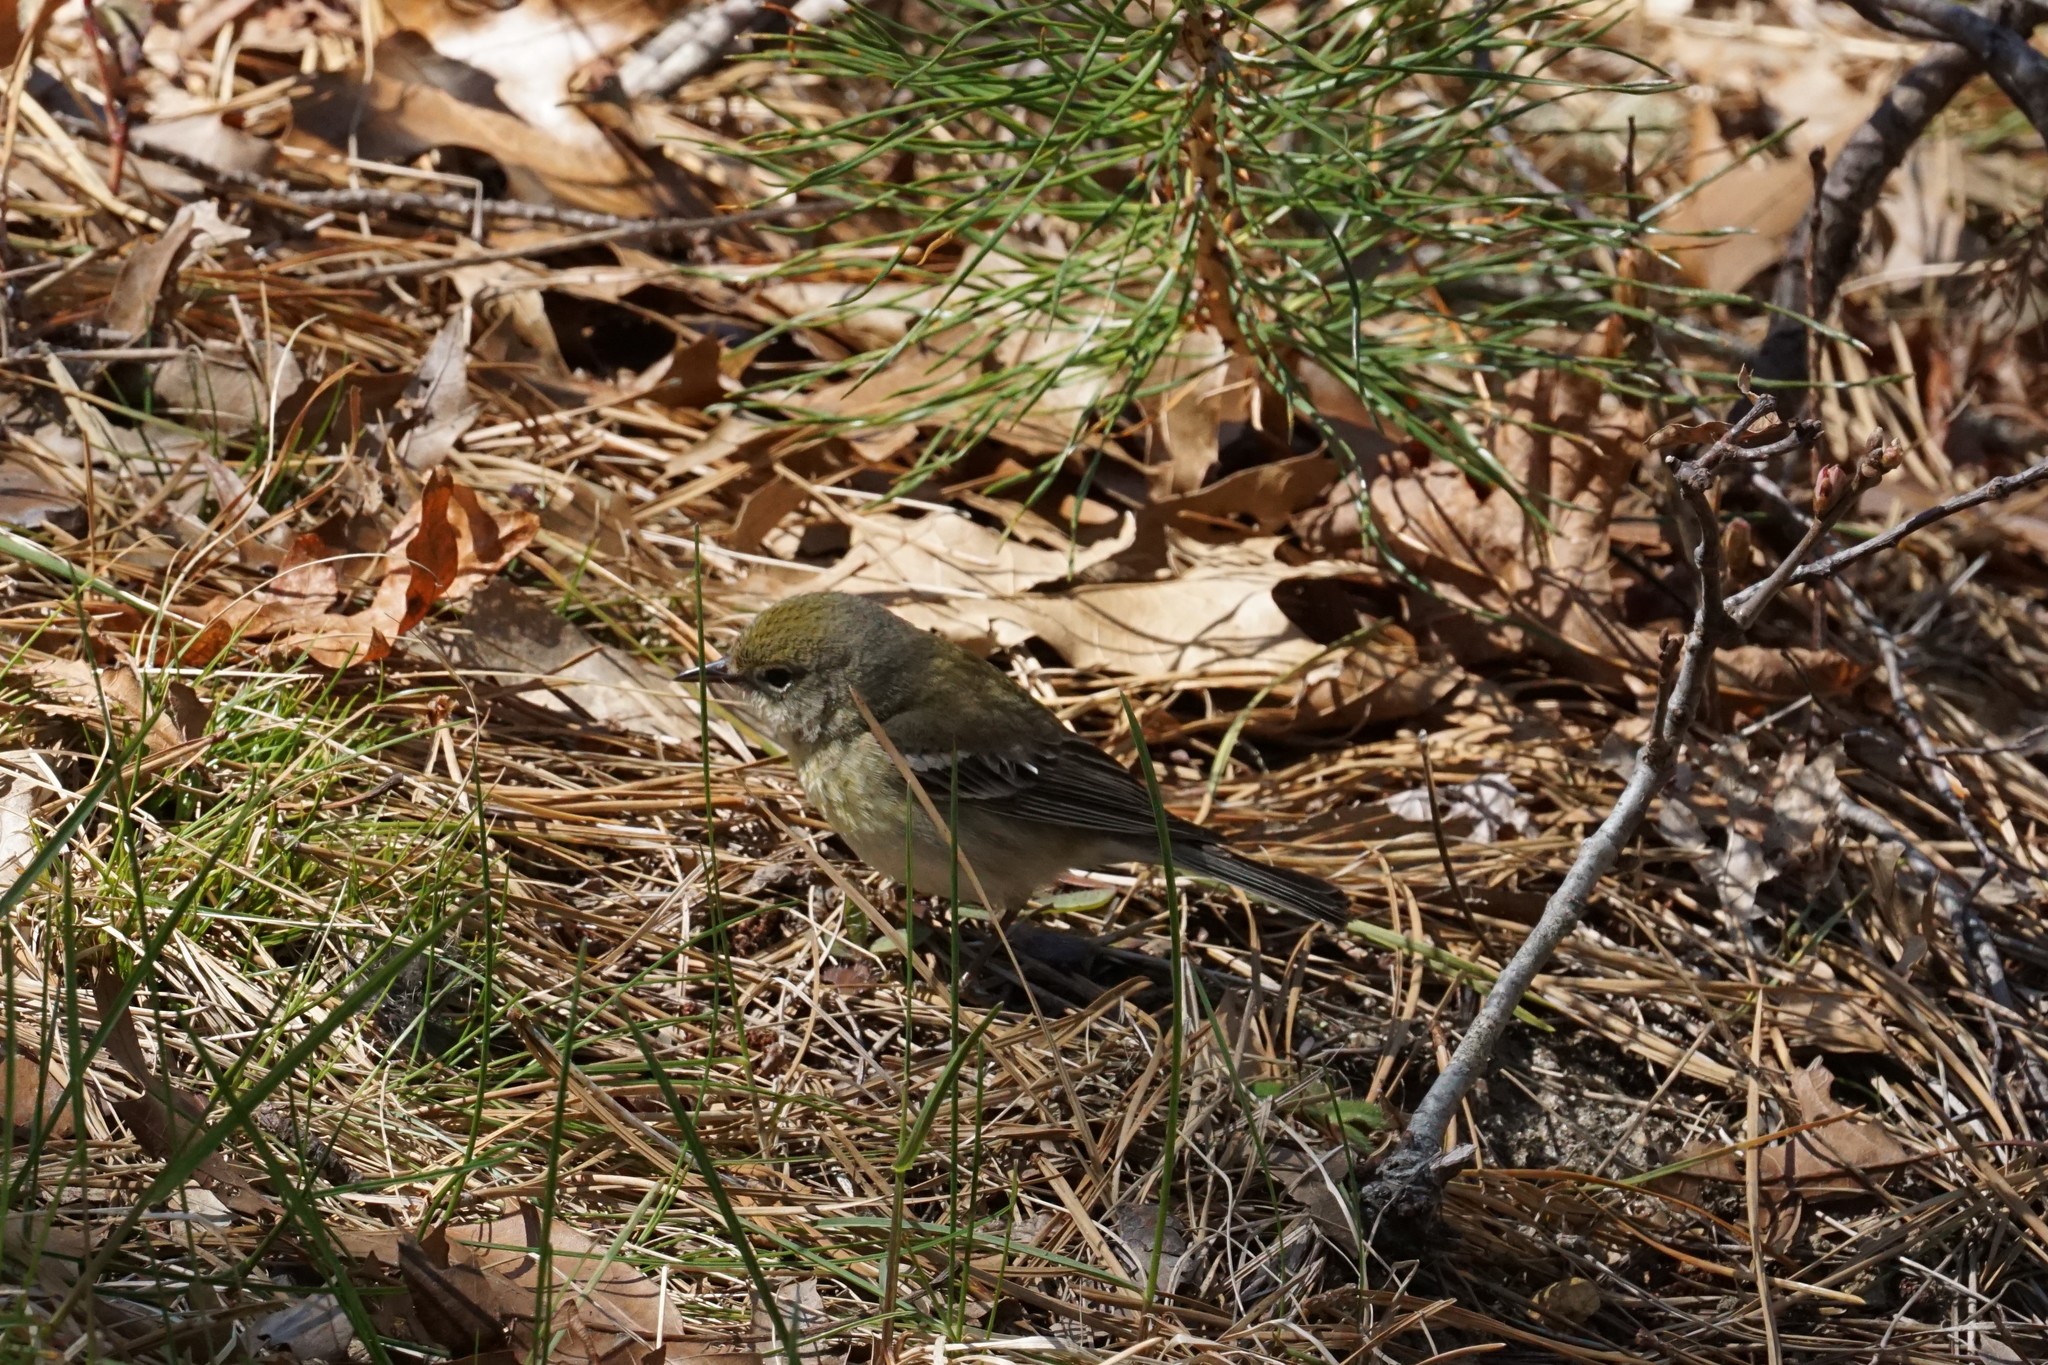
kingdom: Animalia
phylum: Chordata
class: Aves
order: Passeriformes
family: Parulidae
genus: Setophaga
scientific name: Setophaga pinus
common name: Pine warbler
